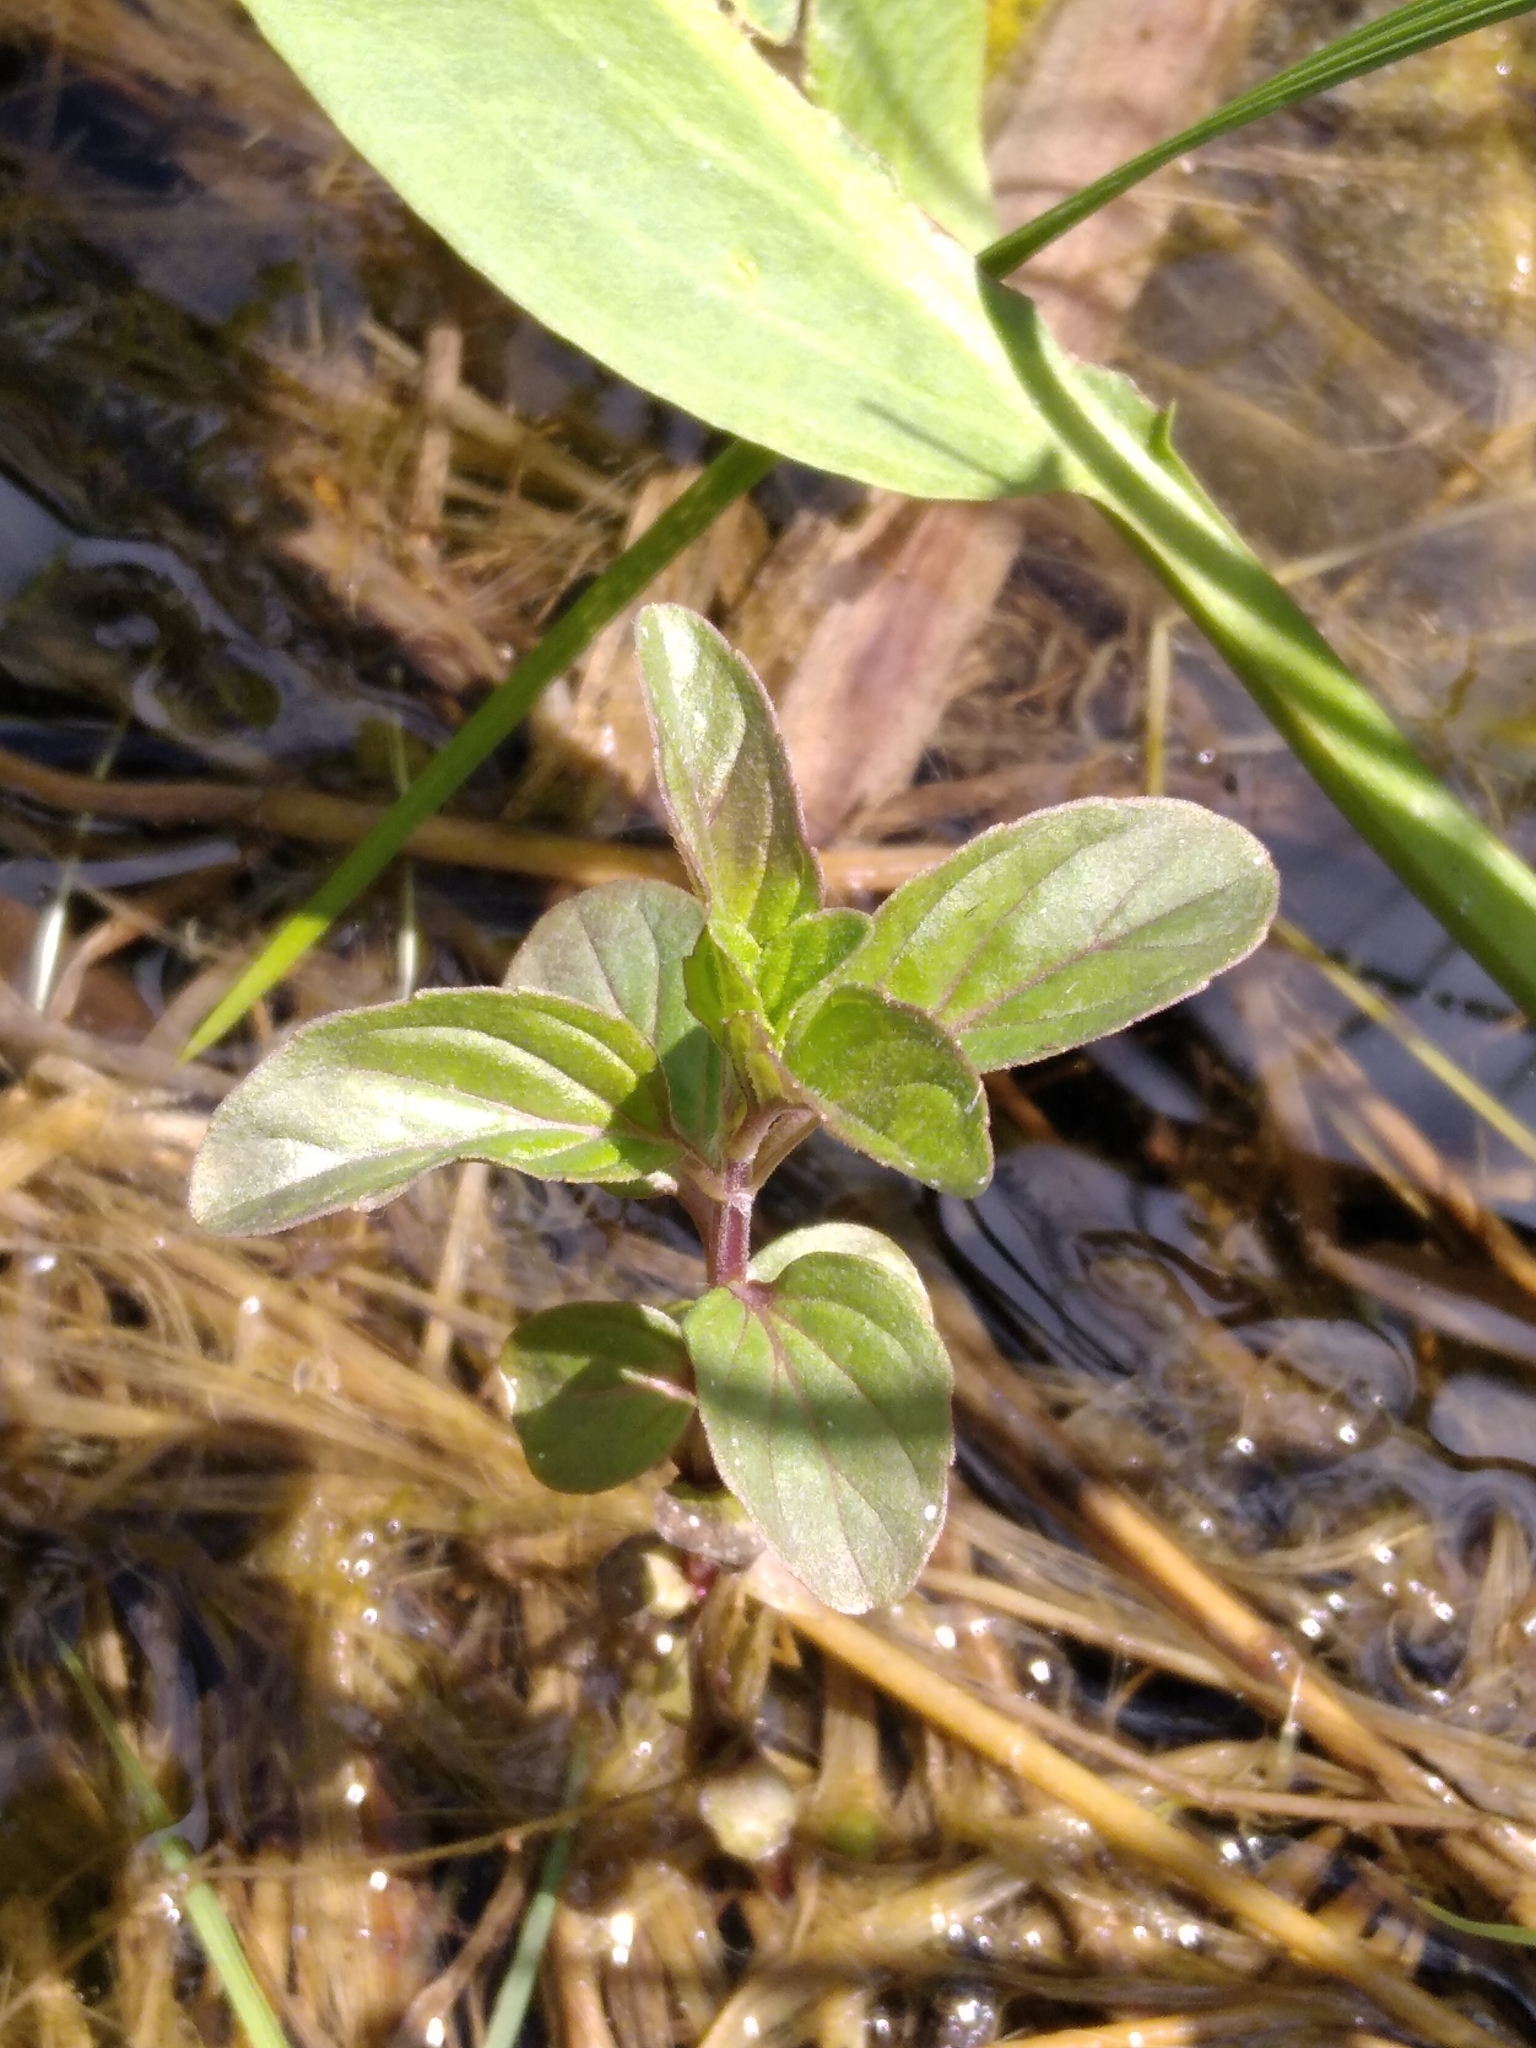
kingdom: Plantae
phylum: Tracheophyta
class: Magnoliopsida
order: Lamiales
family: Lamiaceae
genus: Mentha
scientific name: Mentha arvensis
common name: Corn mint
